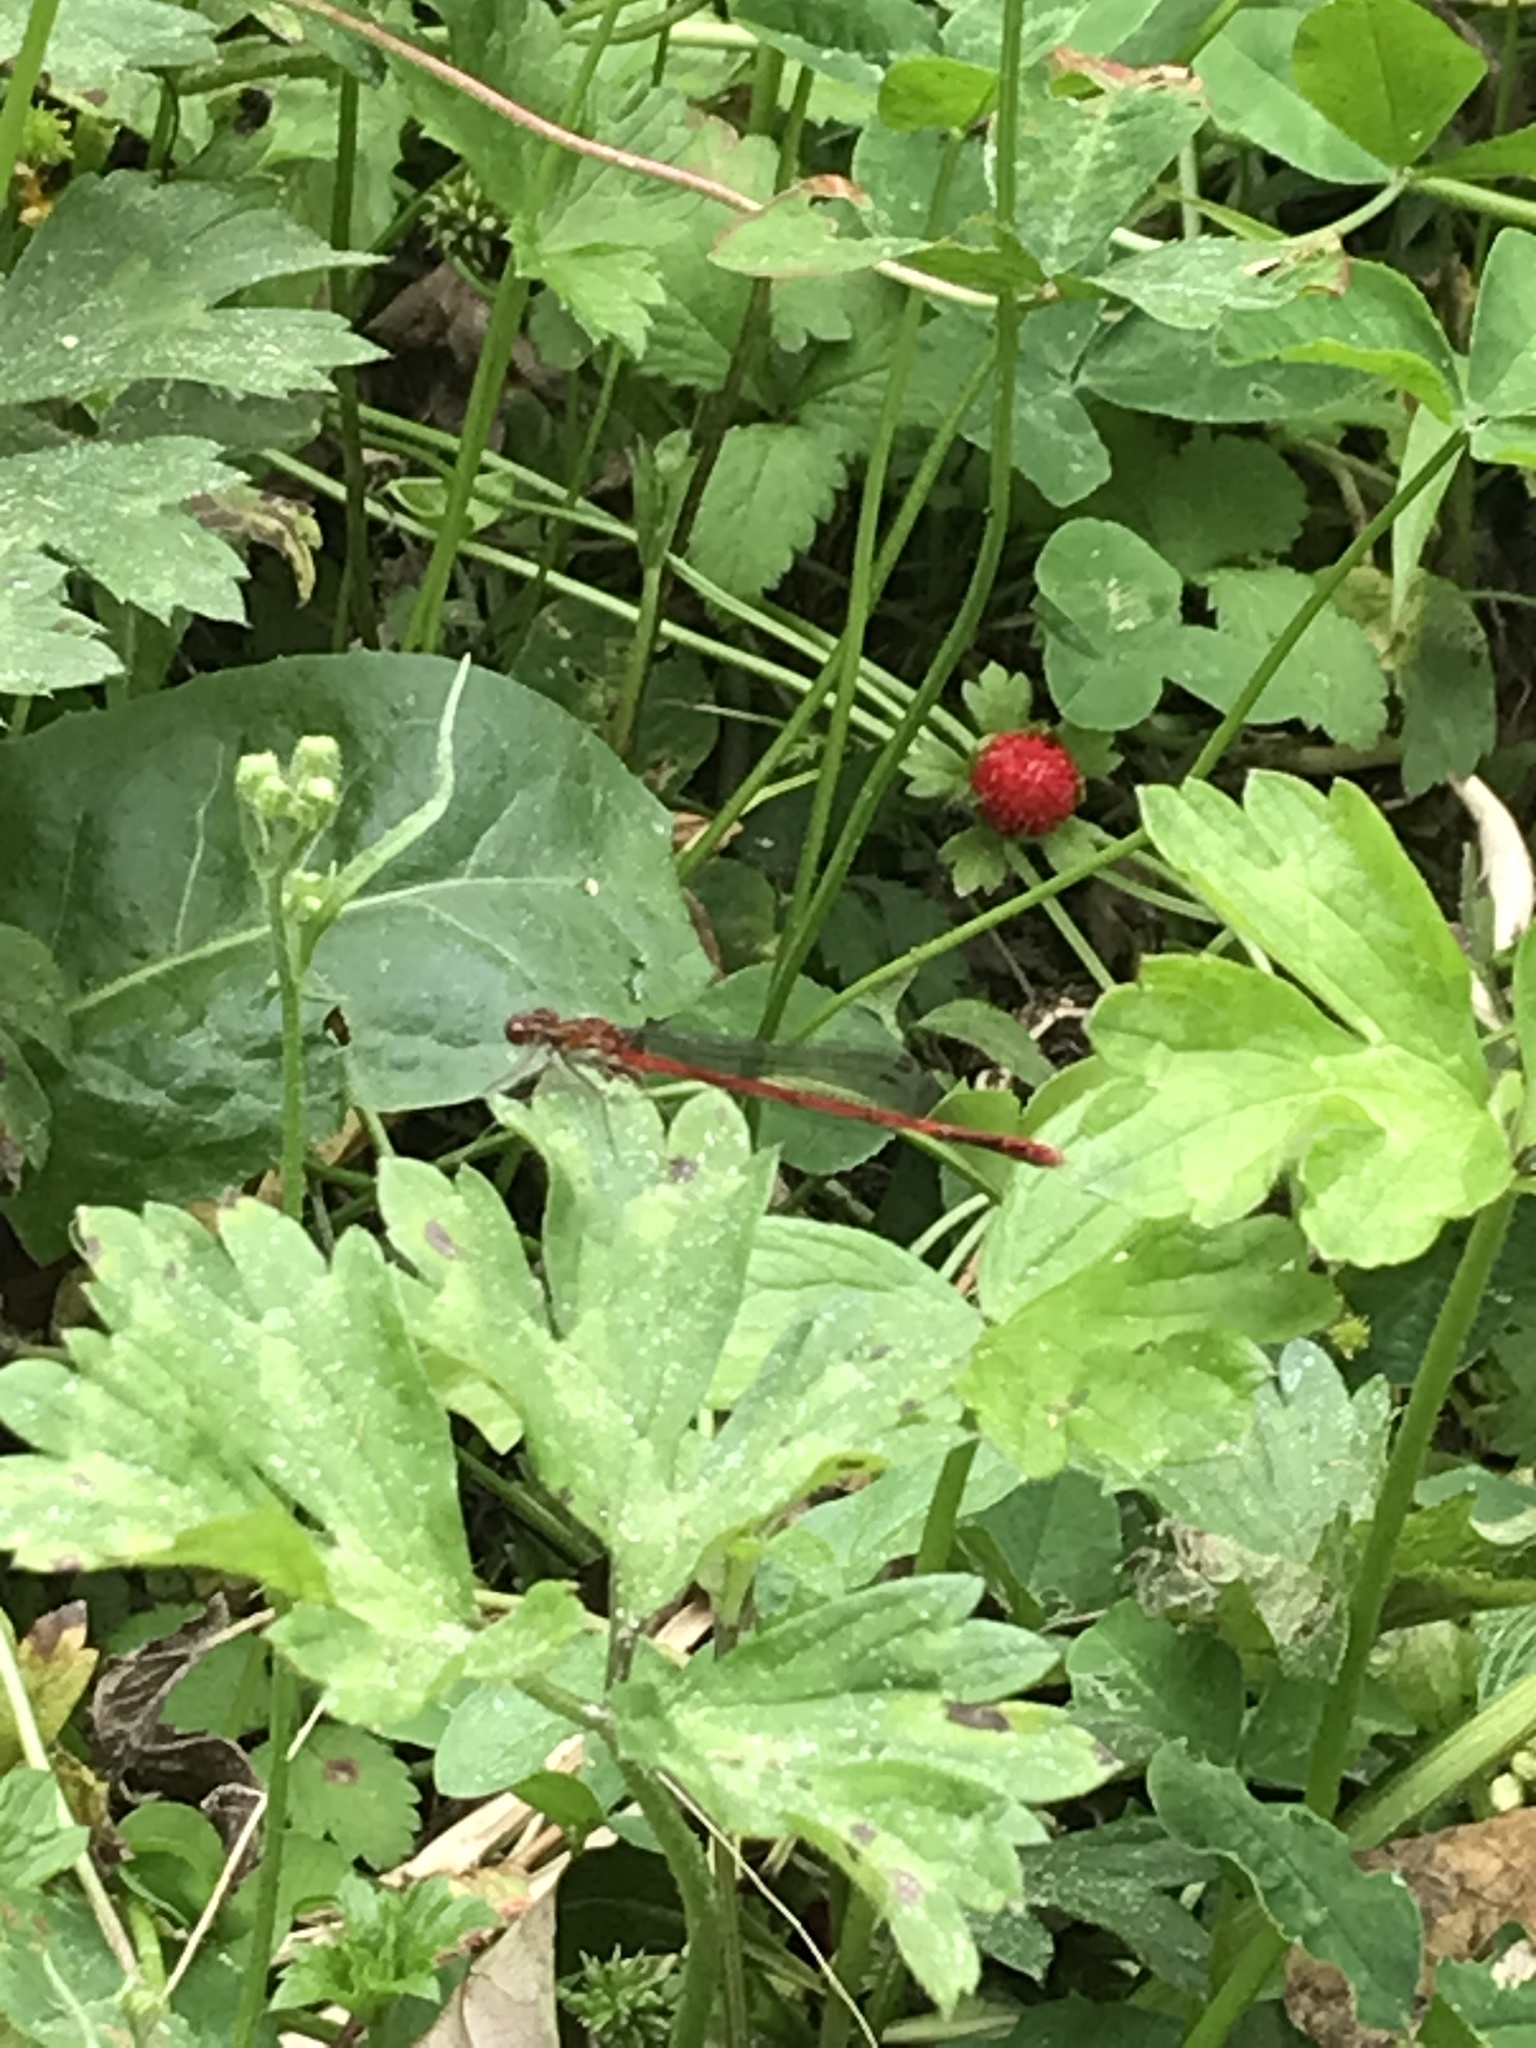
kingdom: Animalia
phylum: Arthropoda
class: Insecta
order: Odonata
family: Coenagrionidae
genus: Xanthocnemis
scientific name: Xanthocnemis zealandica
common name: Common redcoat damselfly
